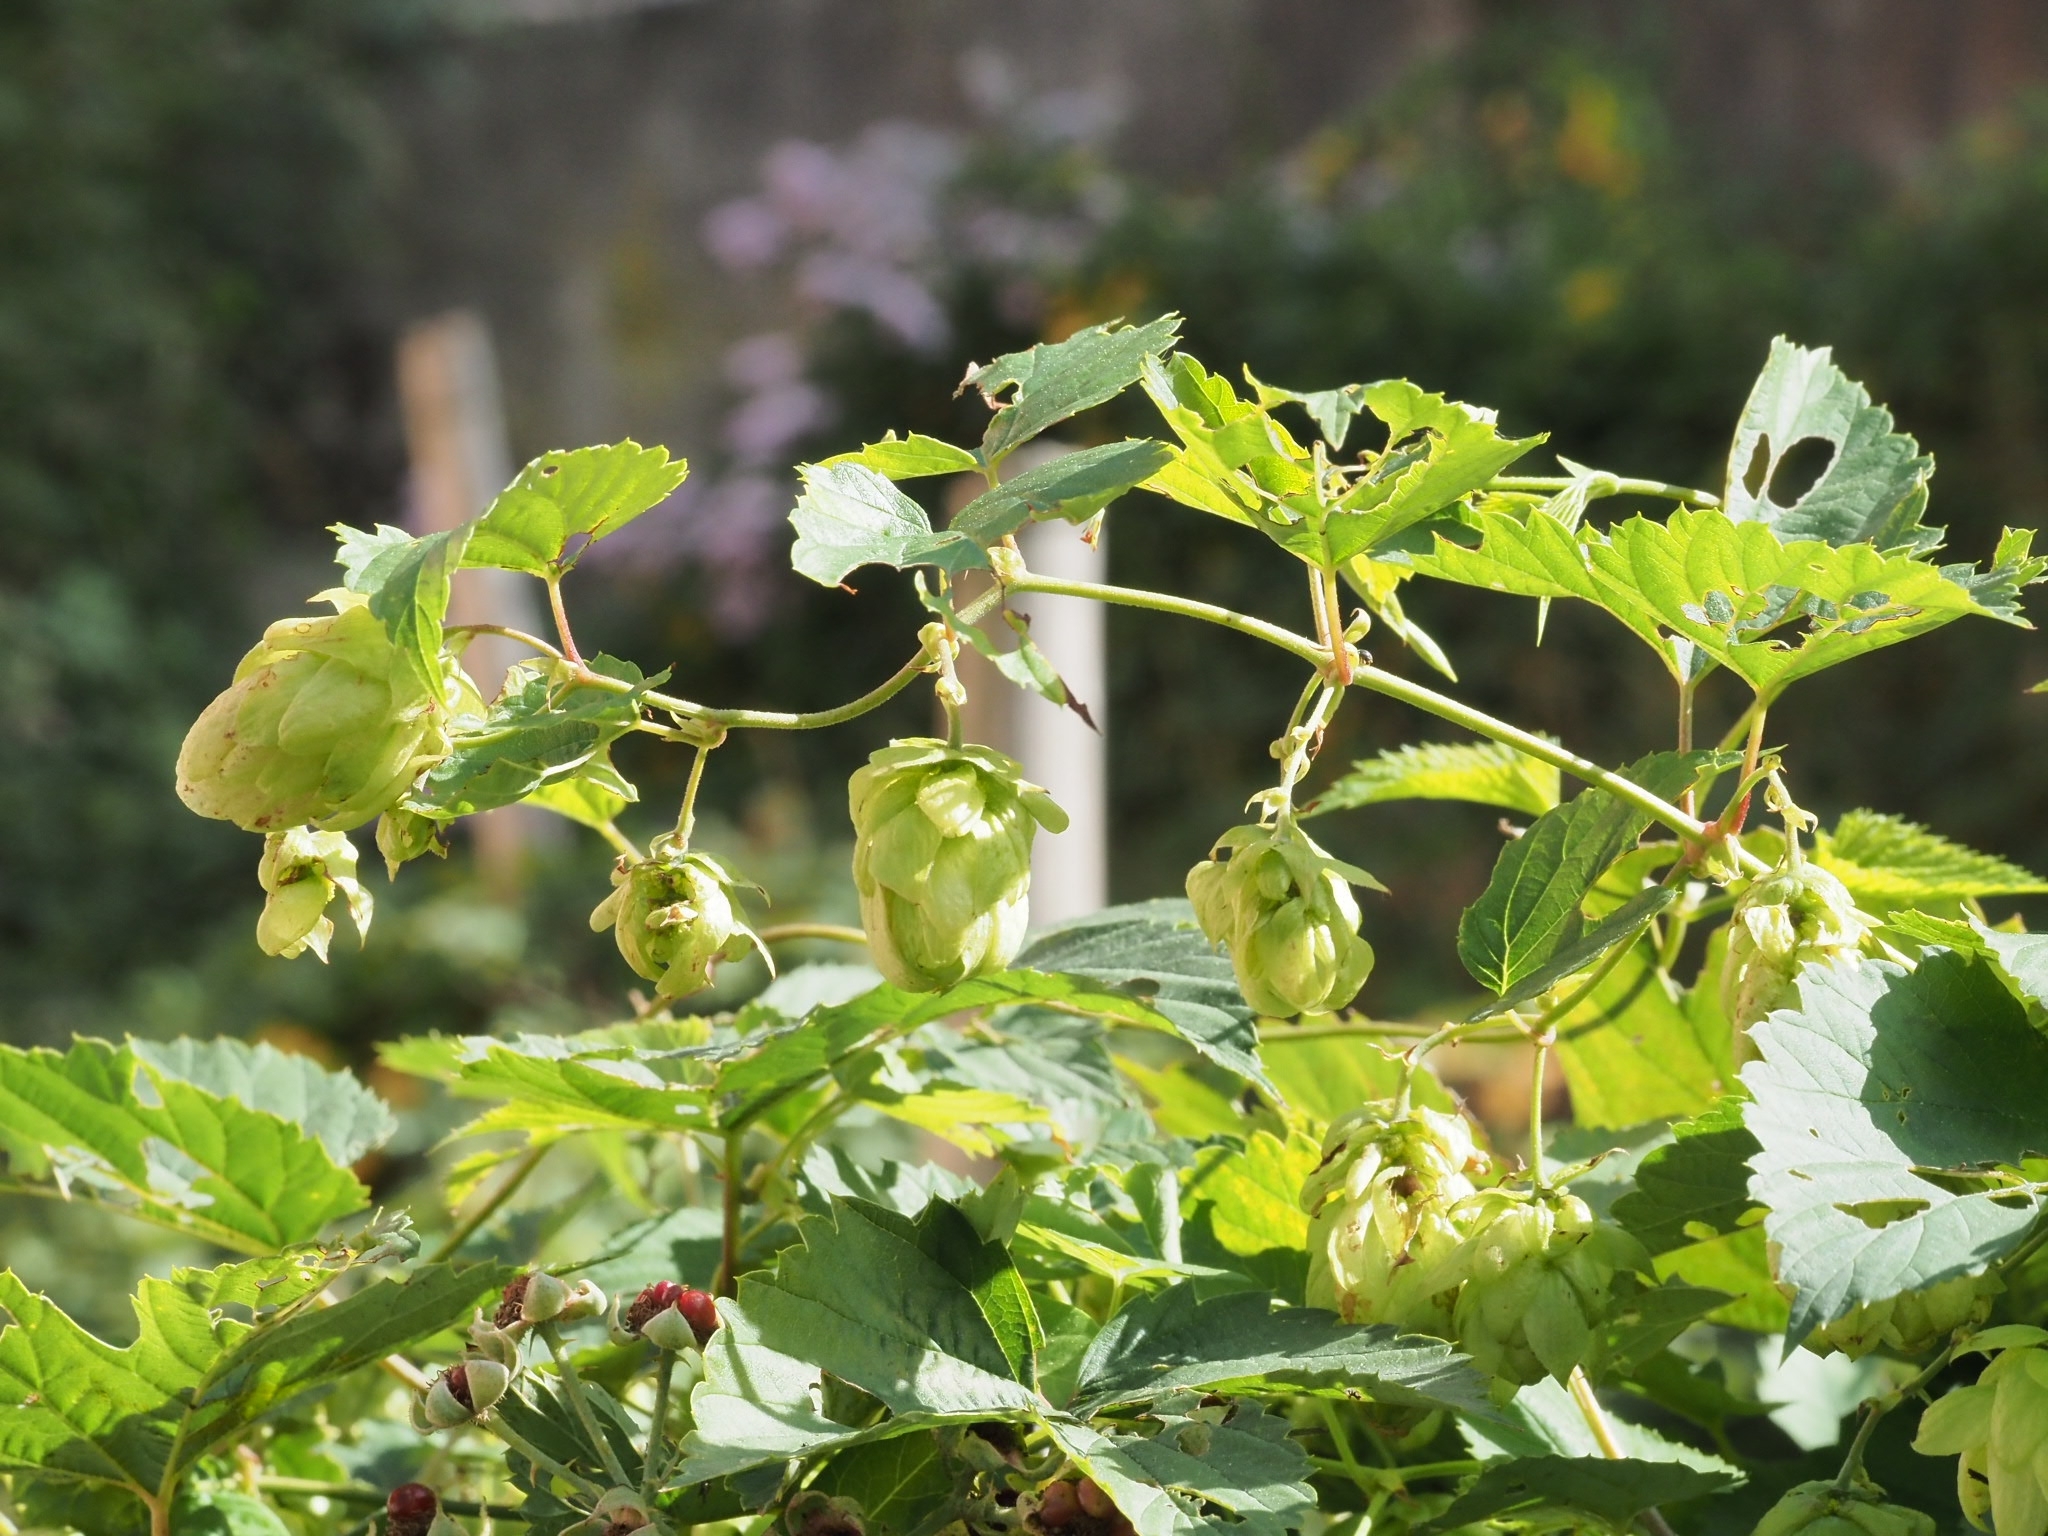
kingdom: Plantae
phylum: Tracheophyta
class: Magnoliopsida
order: Rosales
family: Cannabaceae
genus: Humulus
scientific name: Humulus lupulus
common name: Hop
